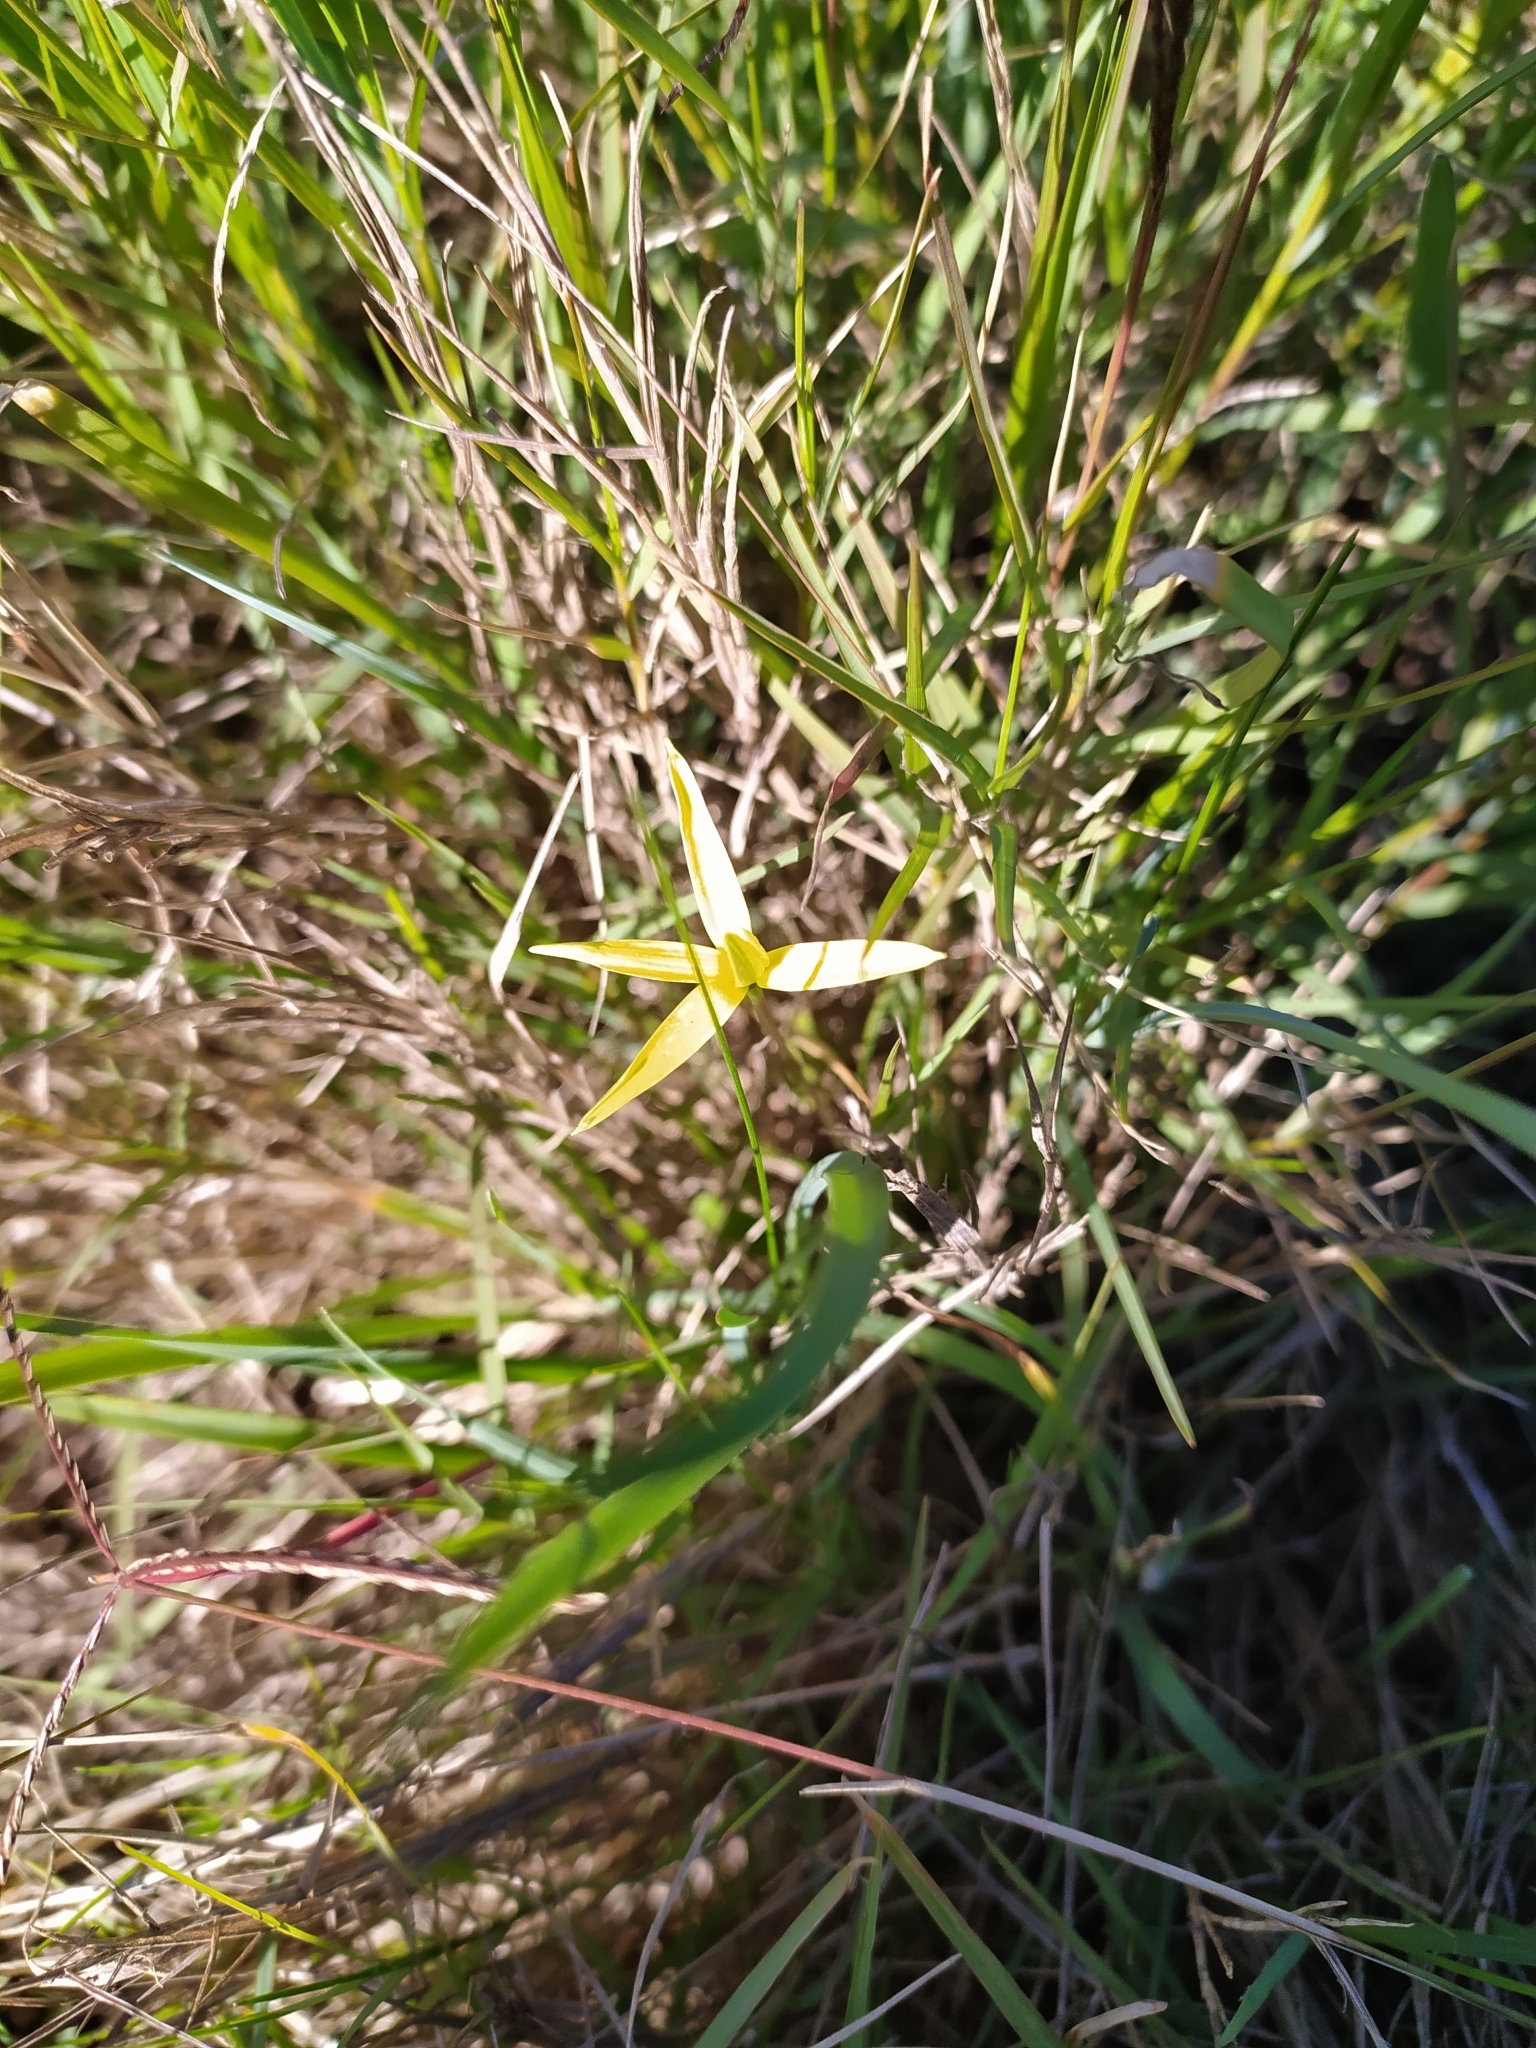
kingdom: Plantae
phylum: Tracheophyta
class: Liliopsida
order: Asparagales
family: Hypoxidaceae
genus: Pauridia
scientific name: Pauridia serrata
